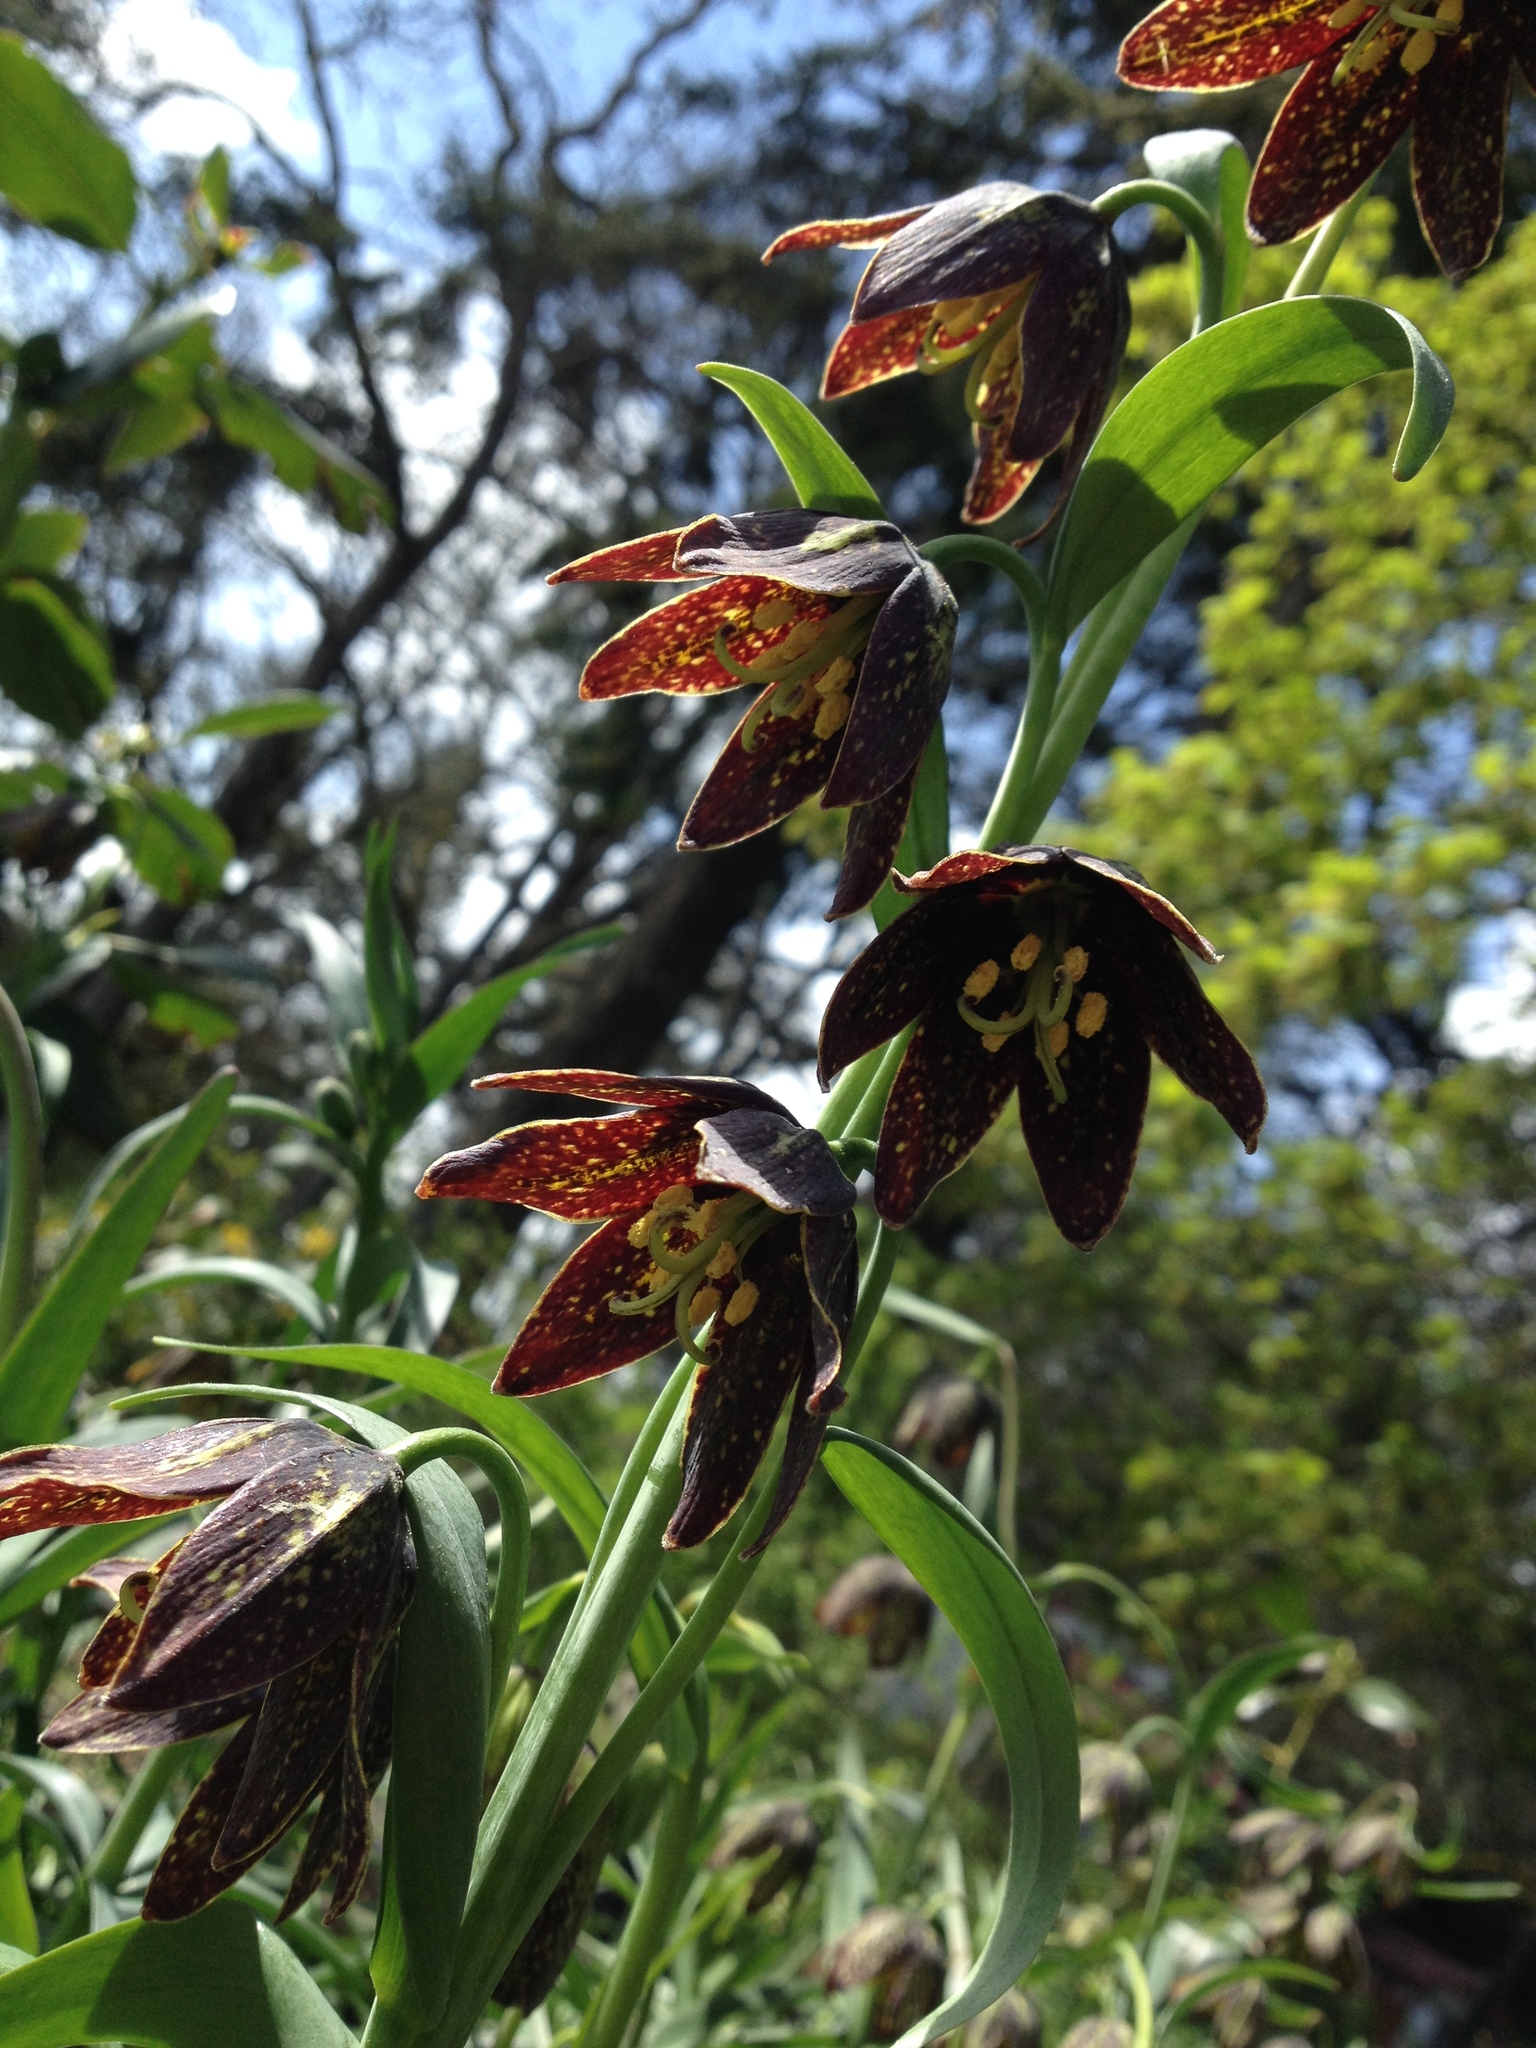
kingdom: Plantae
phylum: Tracheophyta
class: Liliopsida
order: Liliales
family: Liliaceae
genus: Fritillaria
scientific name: Fritillaria affinis
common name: Ojai fritillary
